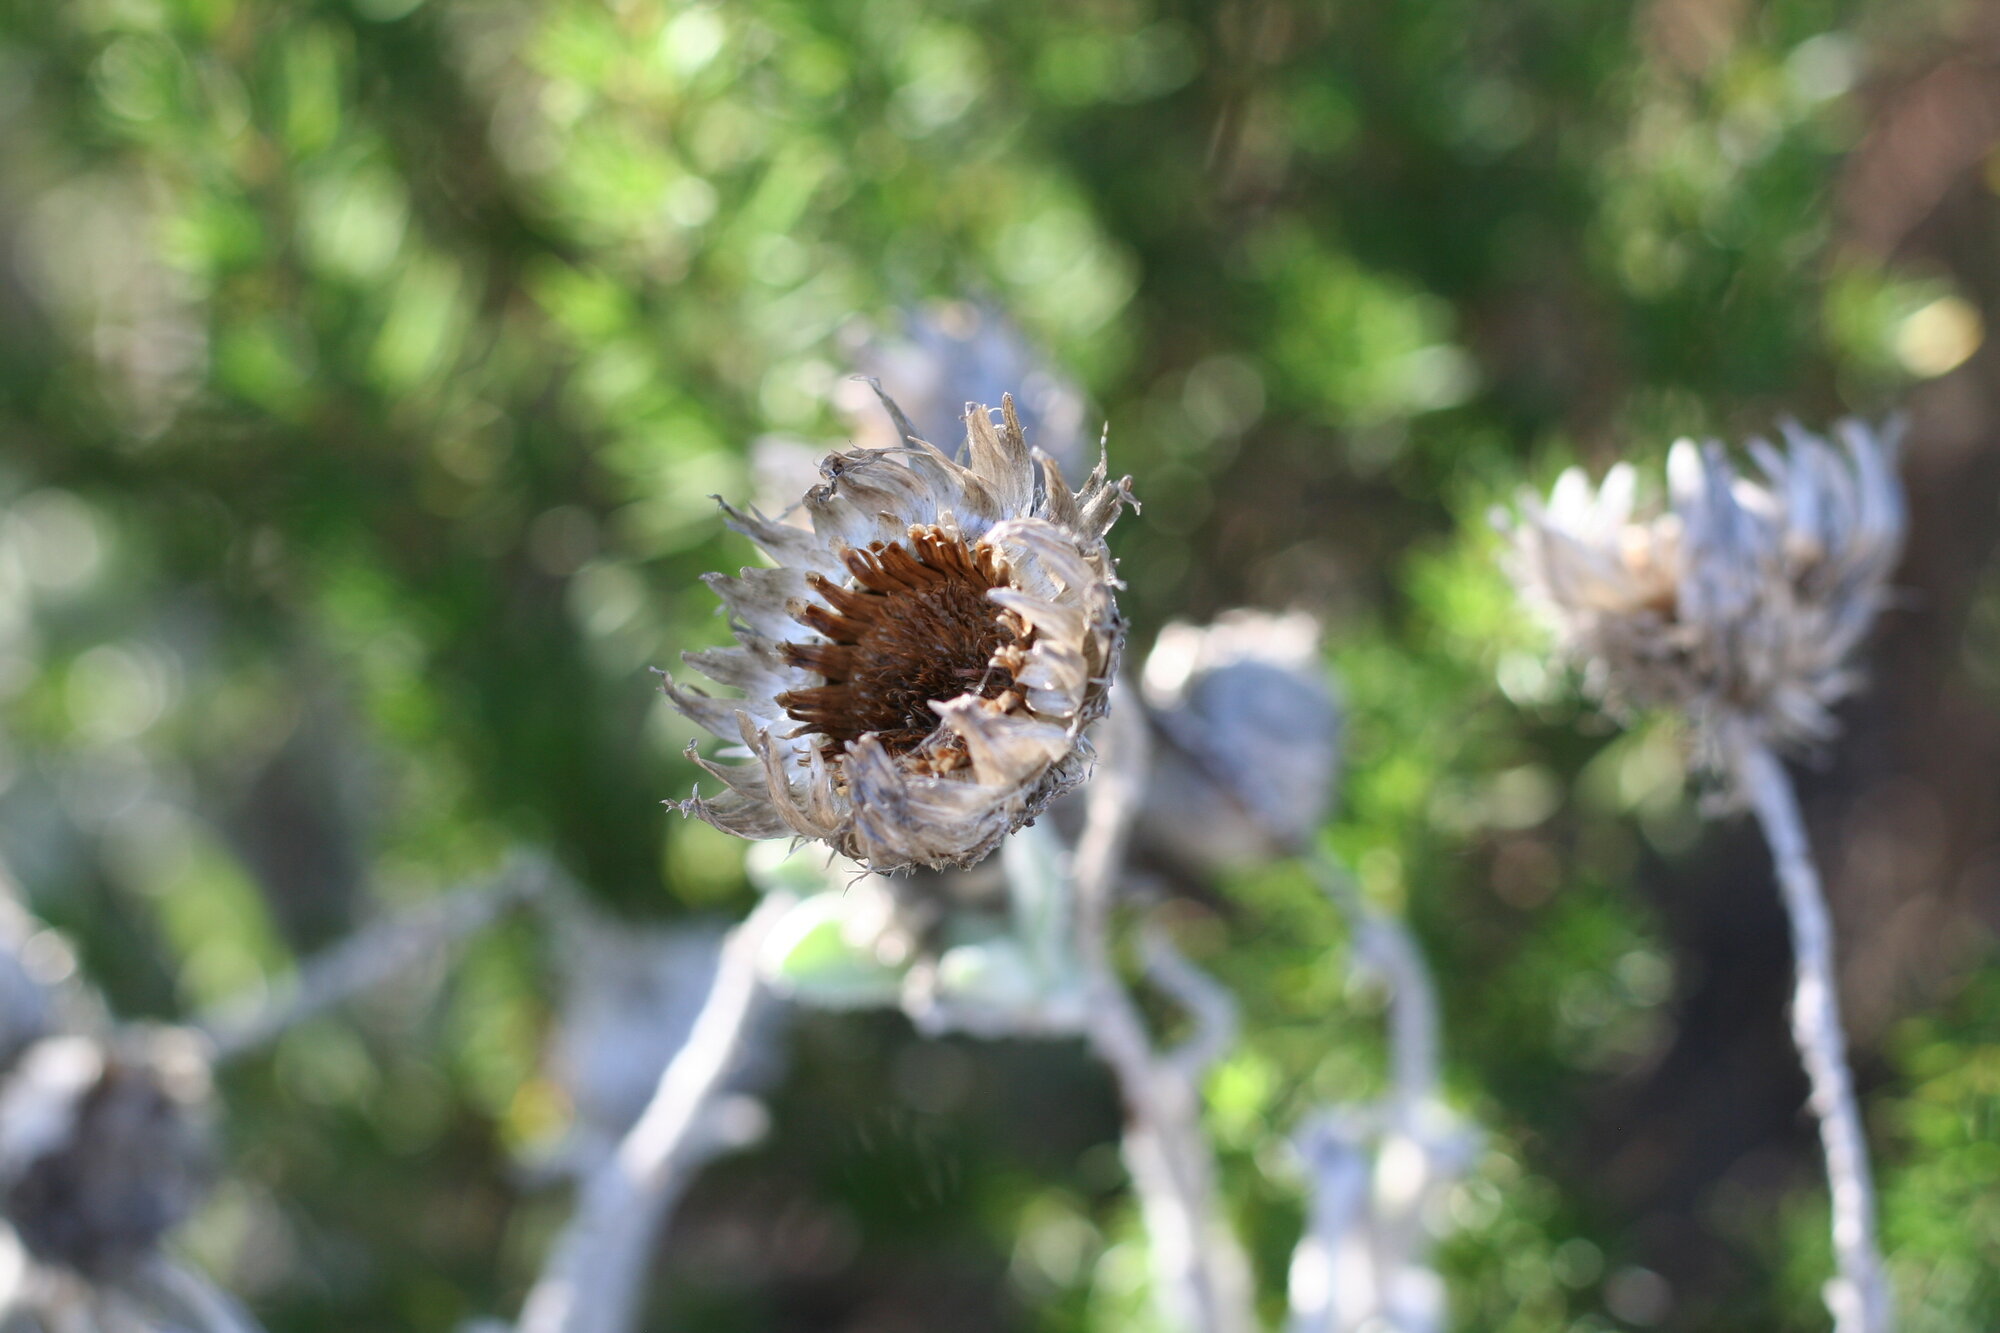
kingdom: Plantae
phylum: Tracheophyta
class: Magnoliopsida
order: Asterales
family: Asteraceae
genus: Syncarpha
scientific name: Syncarpha vestita
